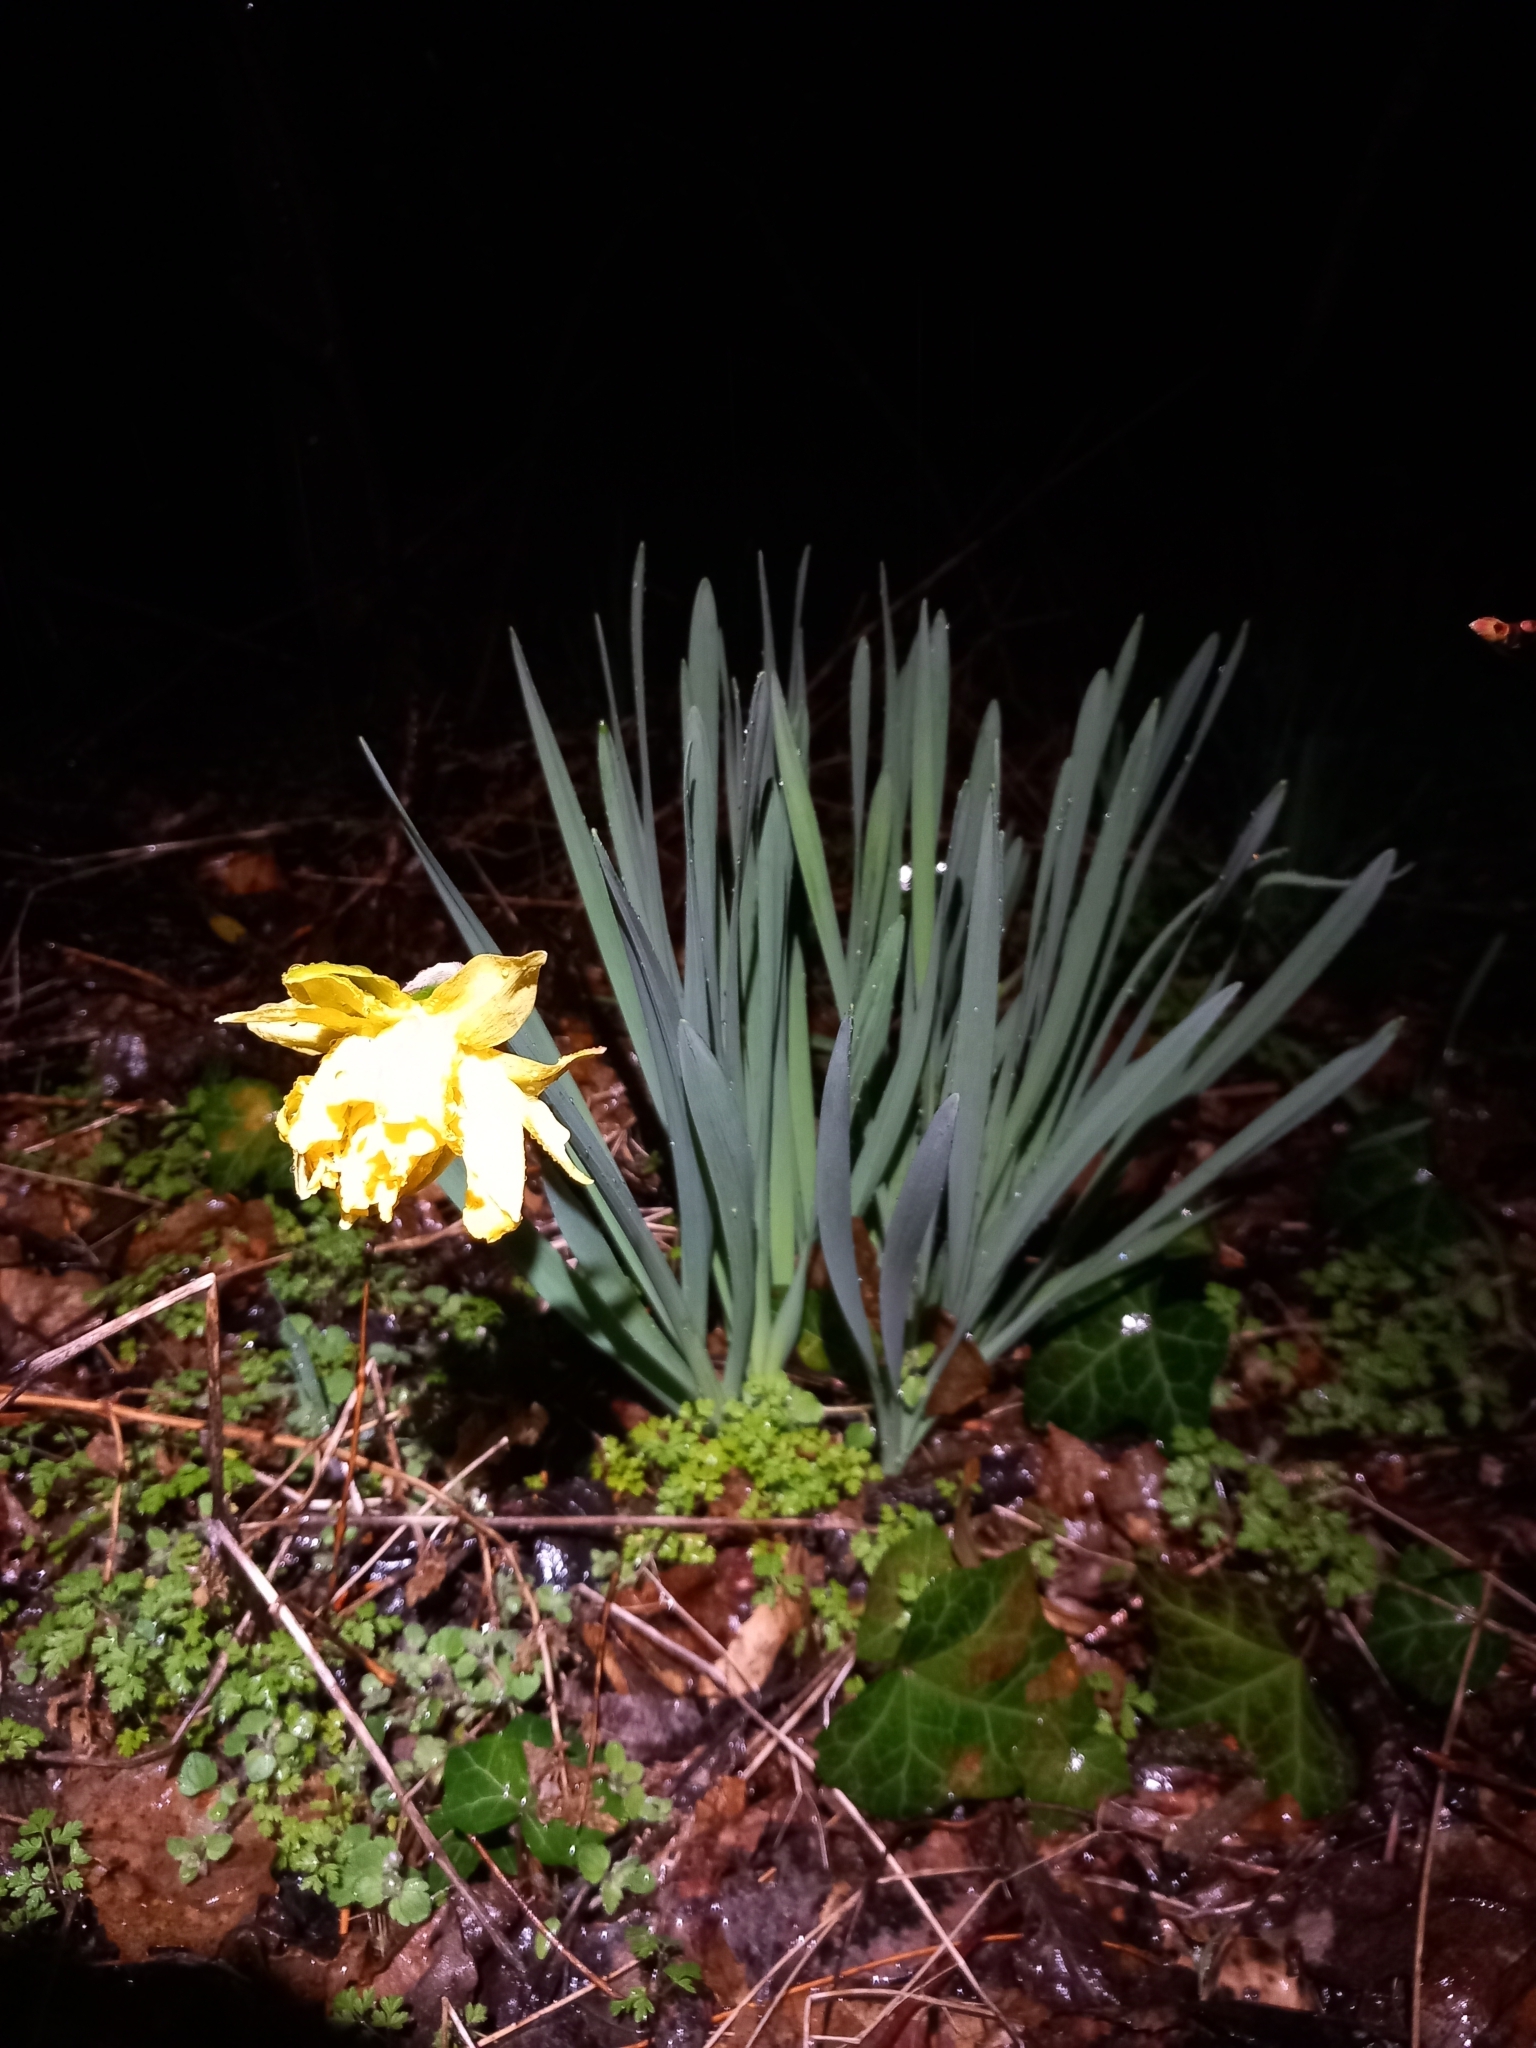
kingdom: Plantae
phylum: Tracheophyta
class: Liliopsida
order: Asparagales
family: Amaryllidaceae
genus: Narcissus
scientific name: Narcissus pseudonarcissus
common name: Daffodil
